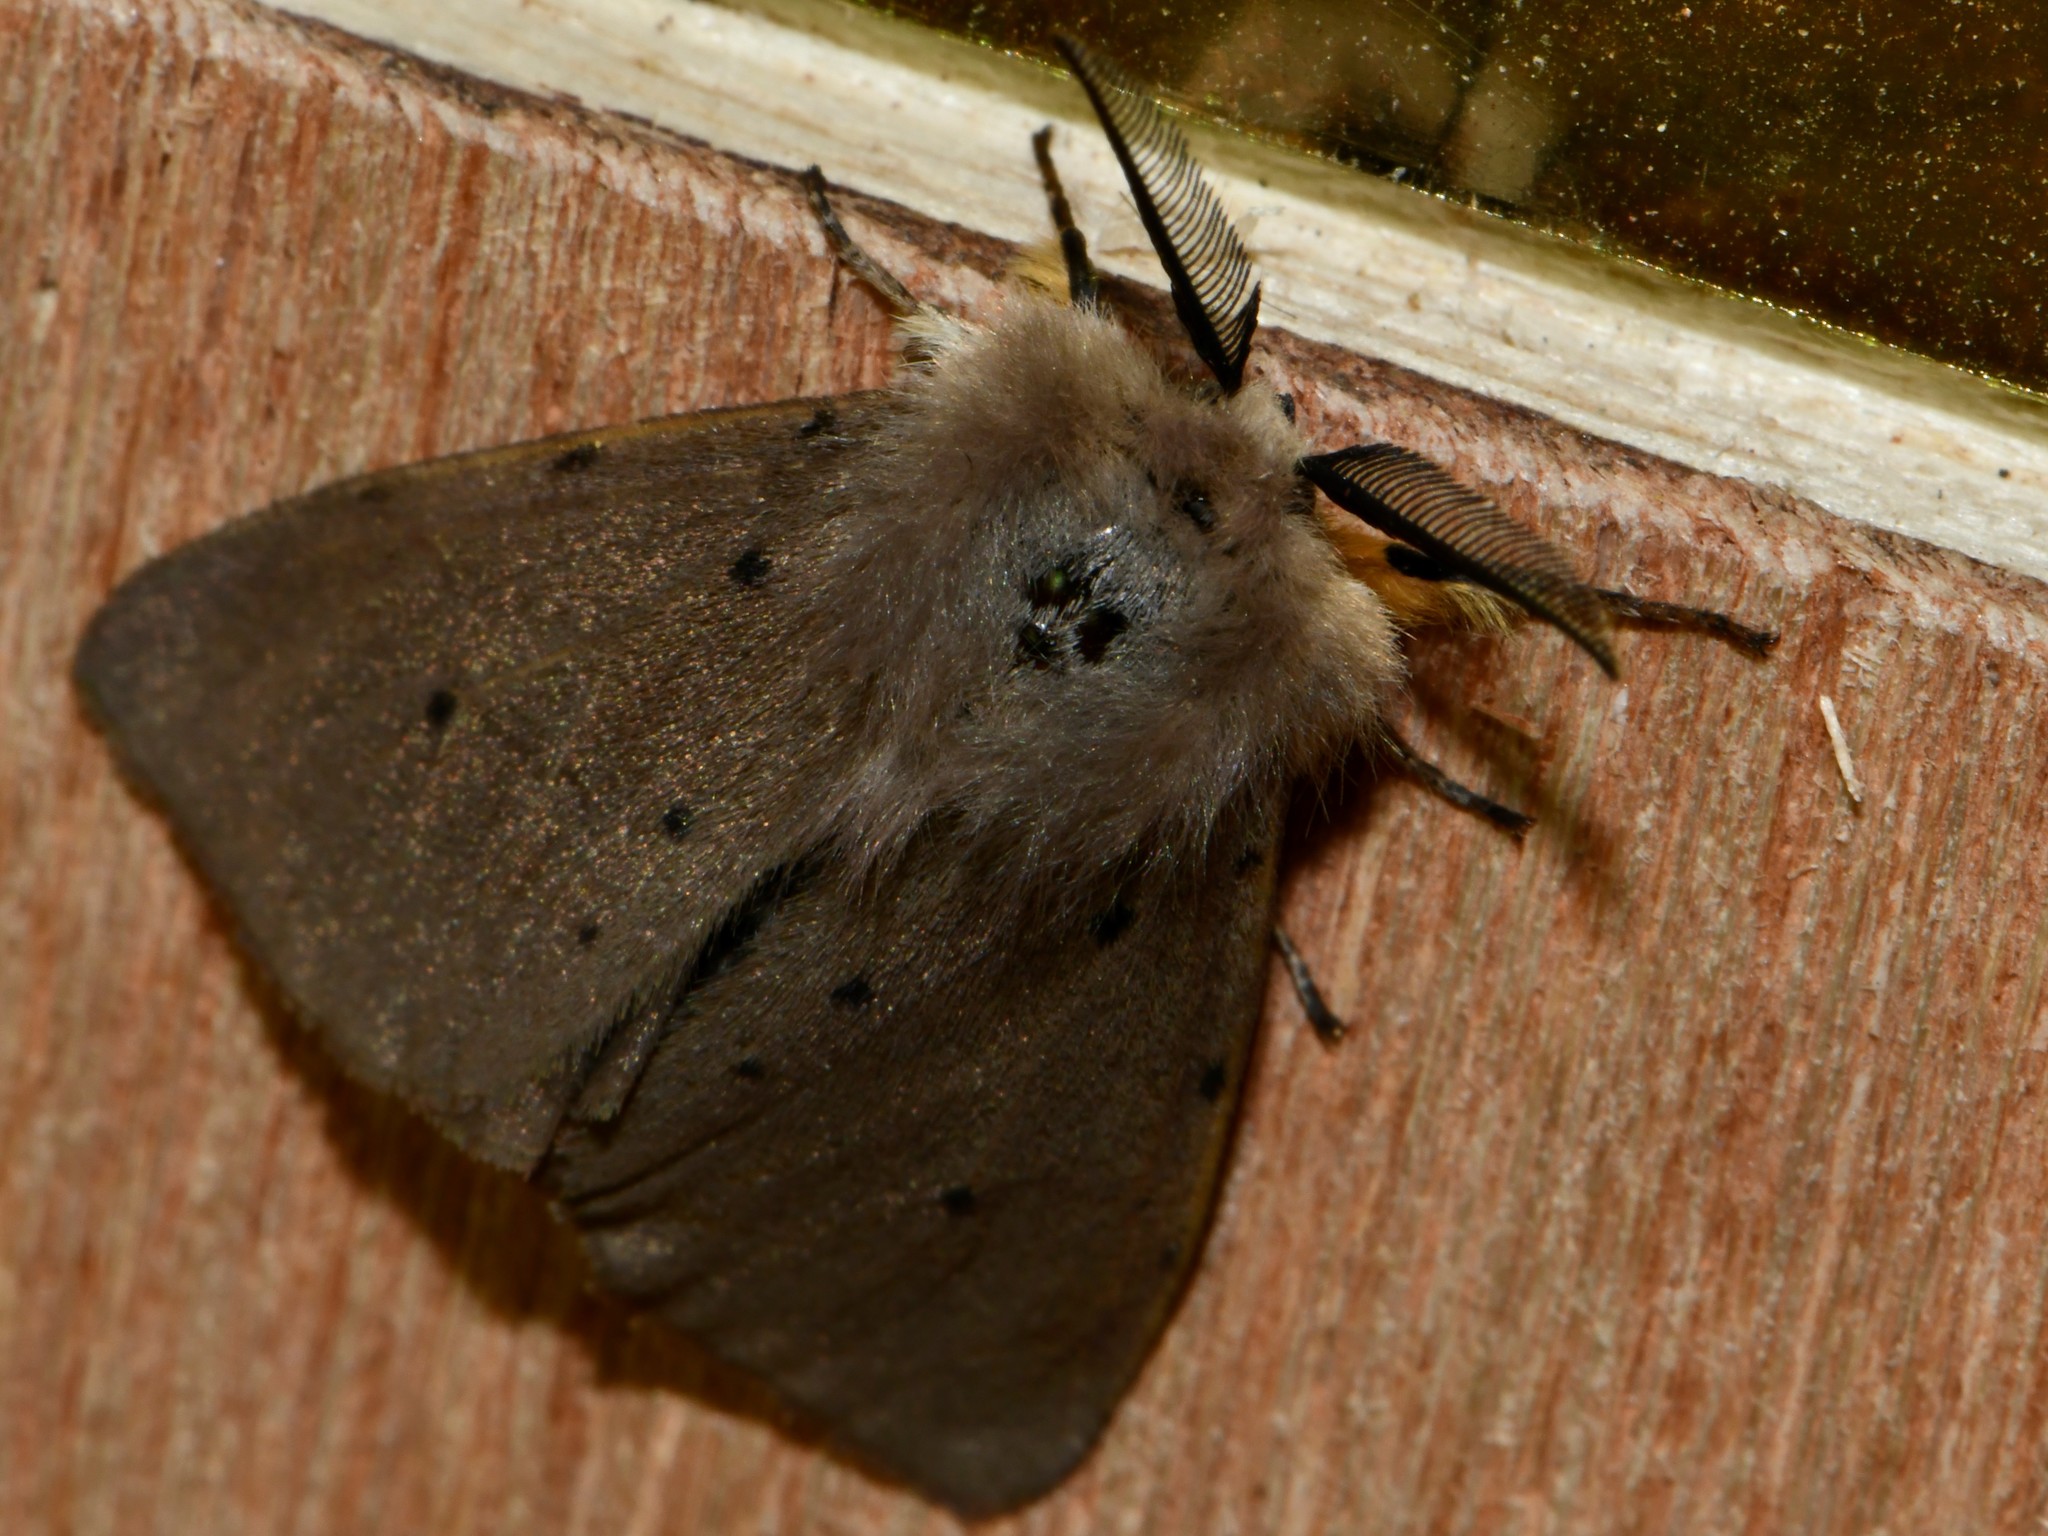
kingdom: Animalia
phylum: Arthropoda
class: Insecta
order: Lepidoptera
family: Erebidae
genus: Diaphora
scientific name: Diaphora mendica
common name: Muslin moth
